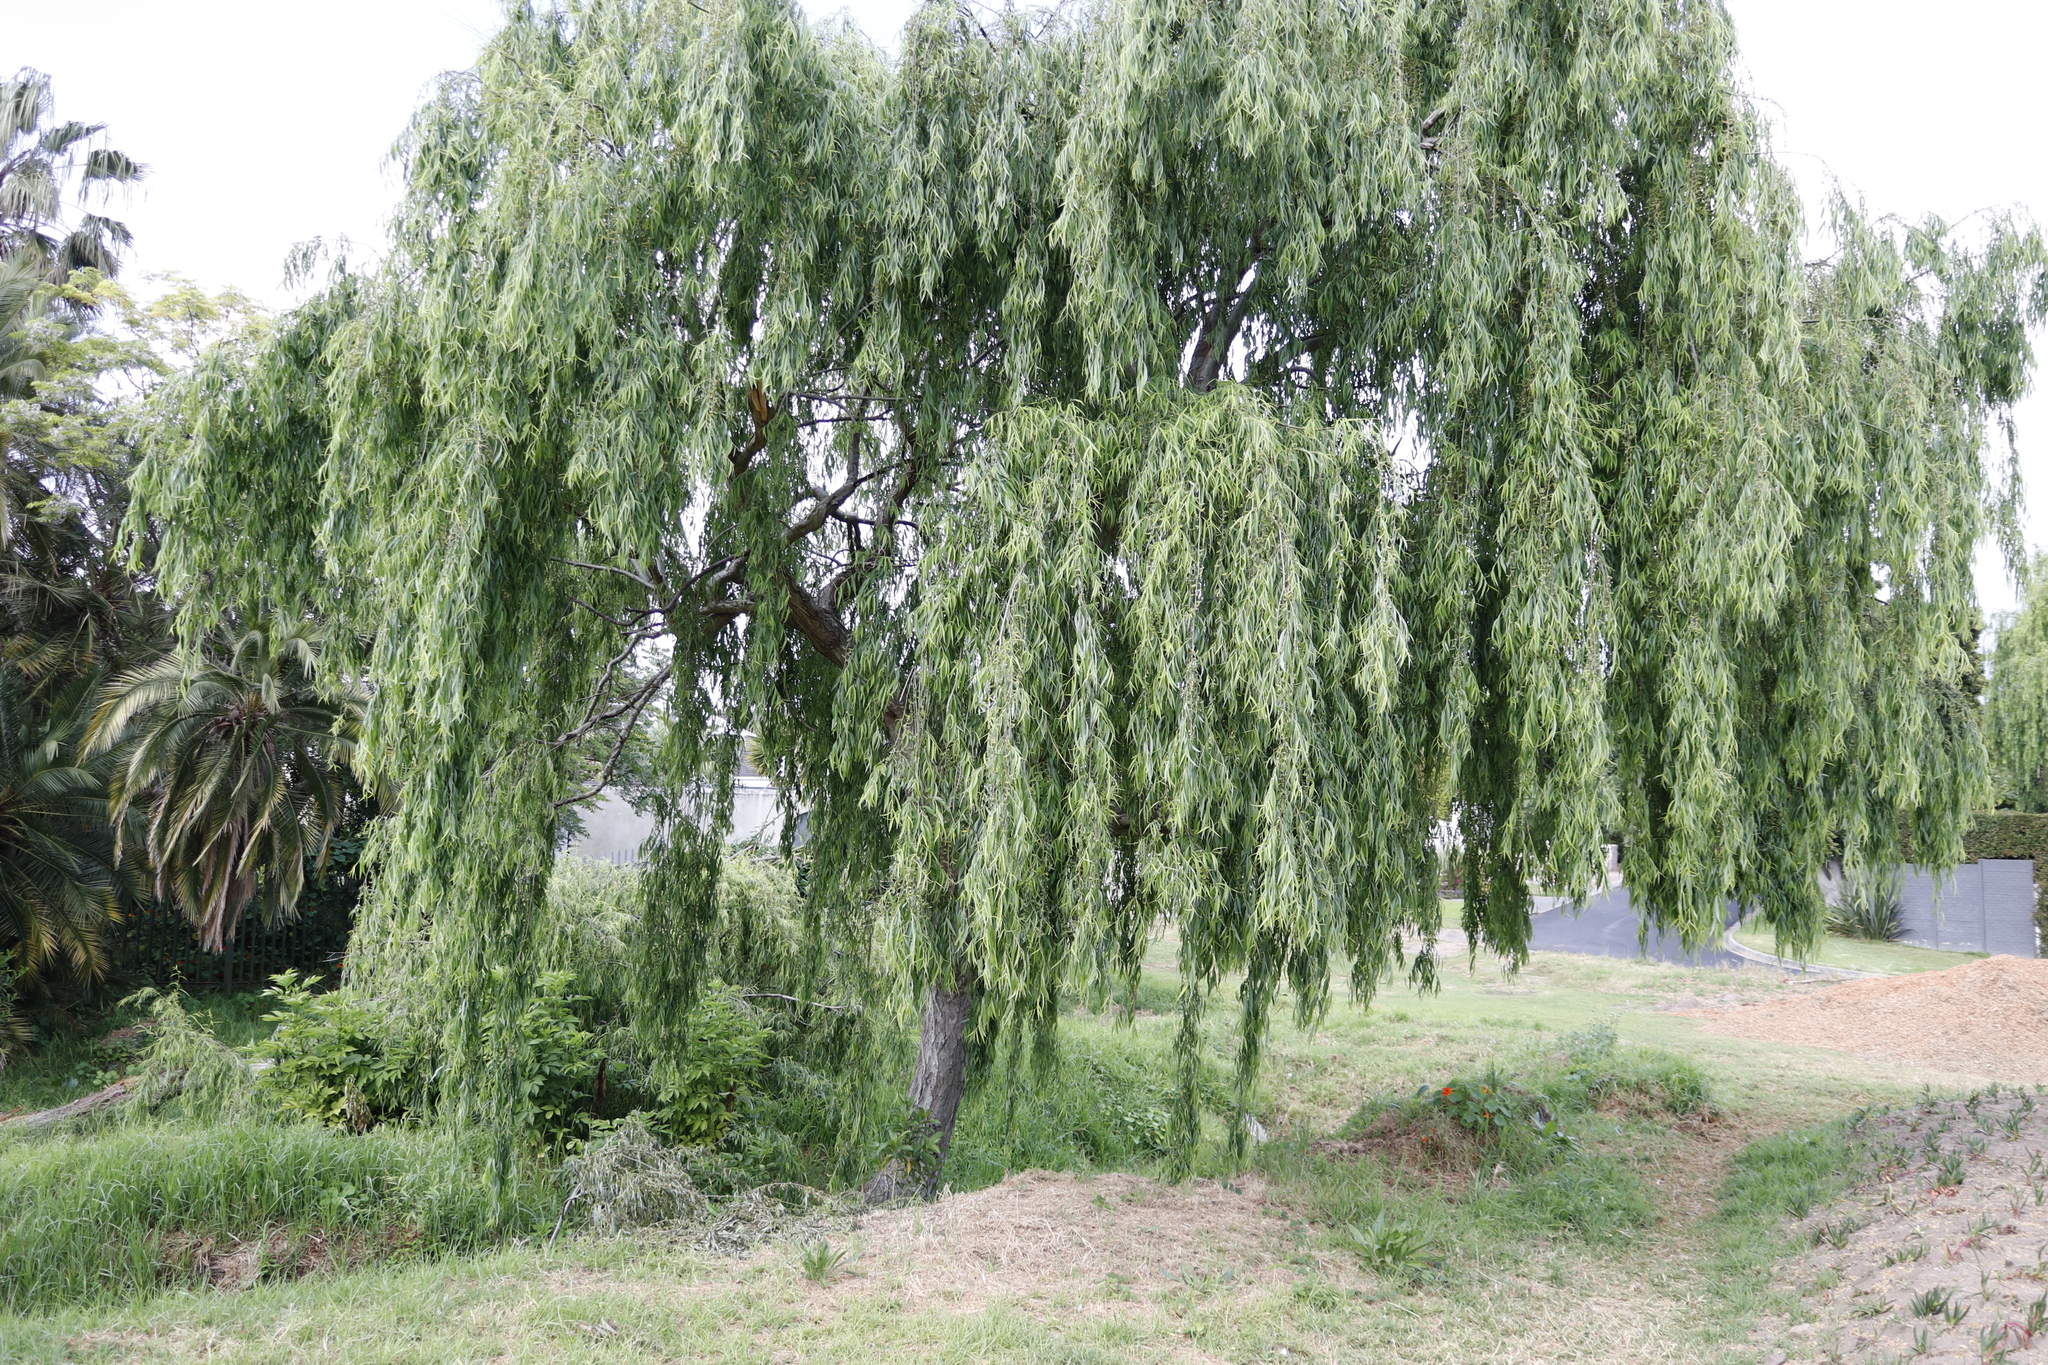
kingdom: Plantae
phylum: Tracheophyta
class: Magnoliopsida
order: Malpighiales
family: Salicaceae
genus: Salix
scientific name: Salix babylonica
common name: Weeping willow
